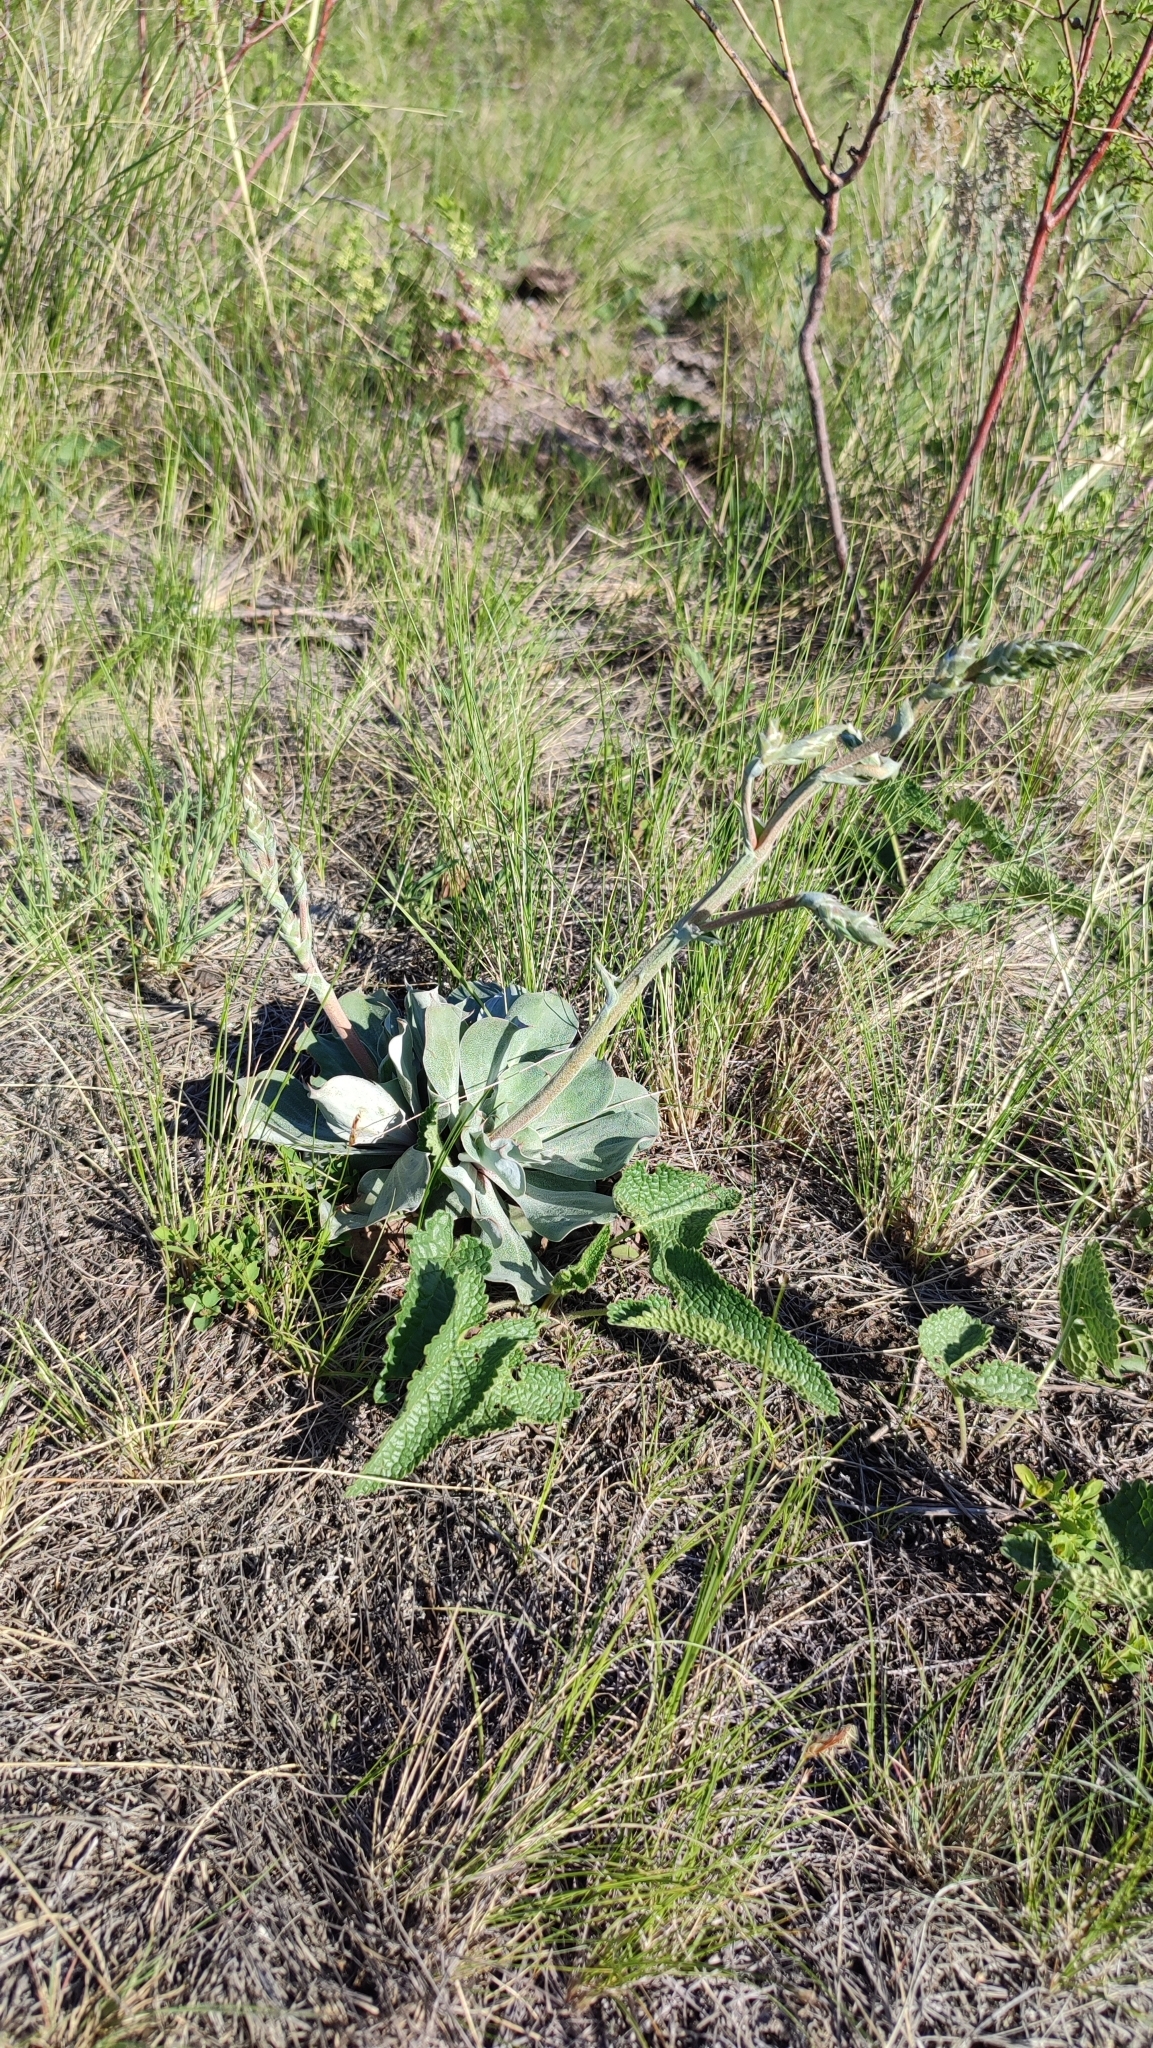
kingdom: Plantae
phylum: Tracheophyta
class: Magnoliopsida
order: Caryophyllales
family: Plumbaginaceae
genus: Goniolimon
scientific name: Goniolimon speciosum
